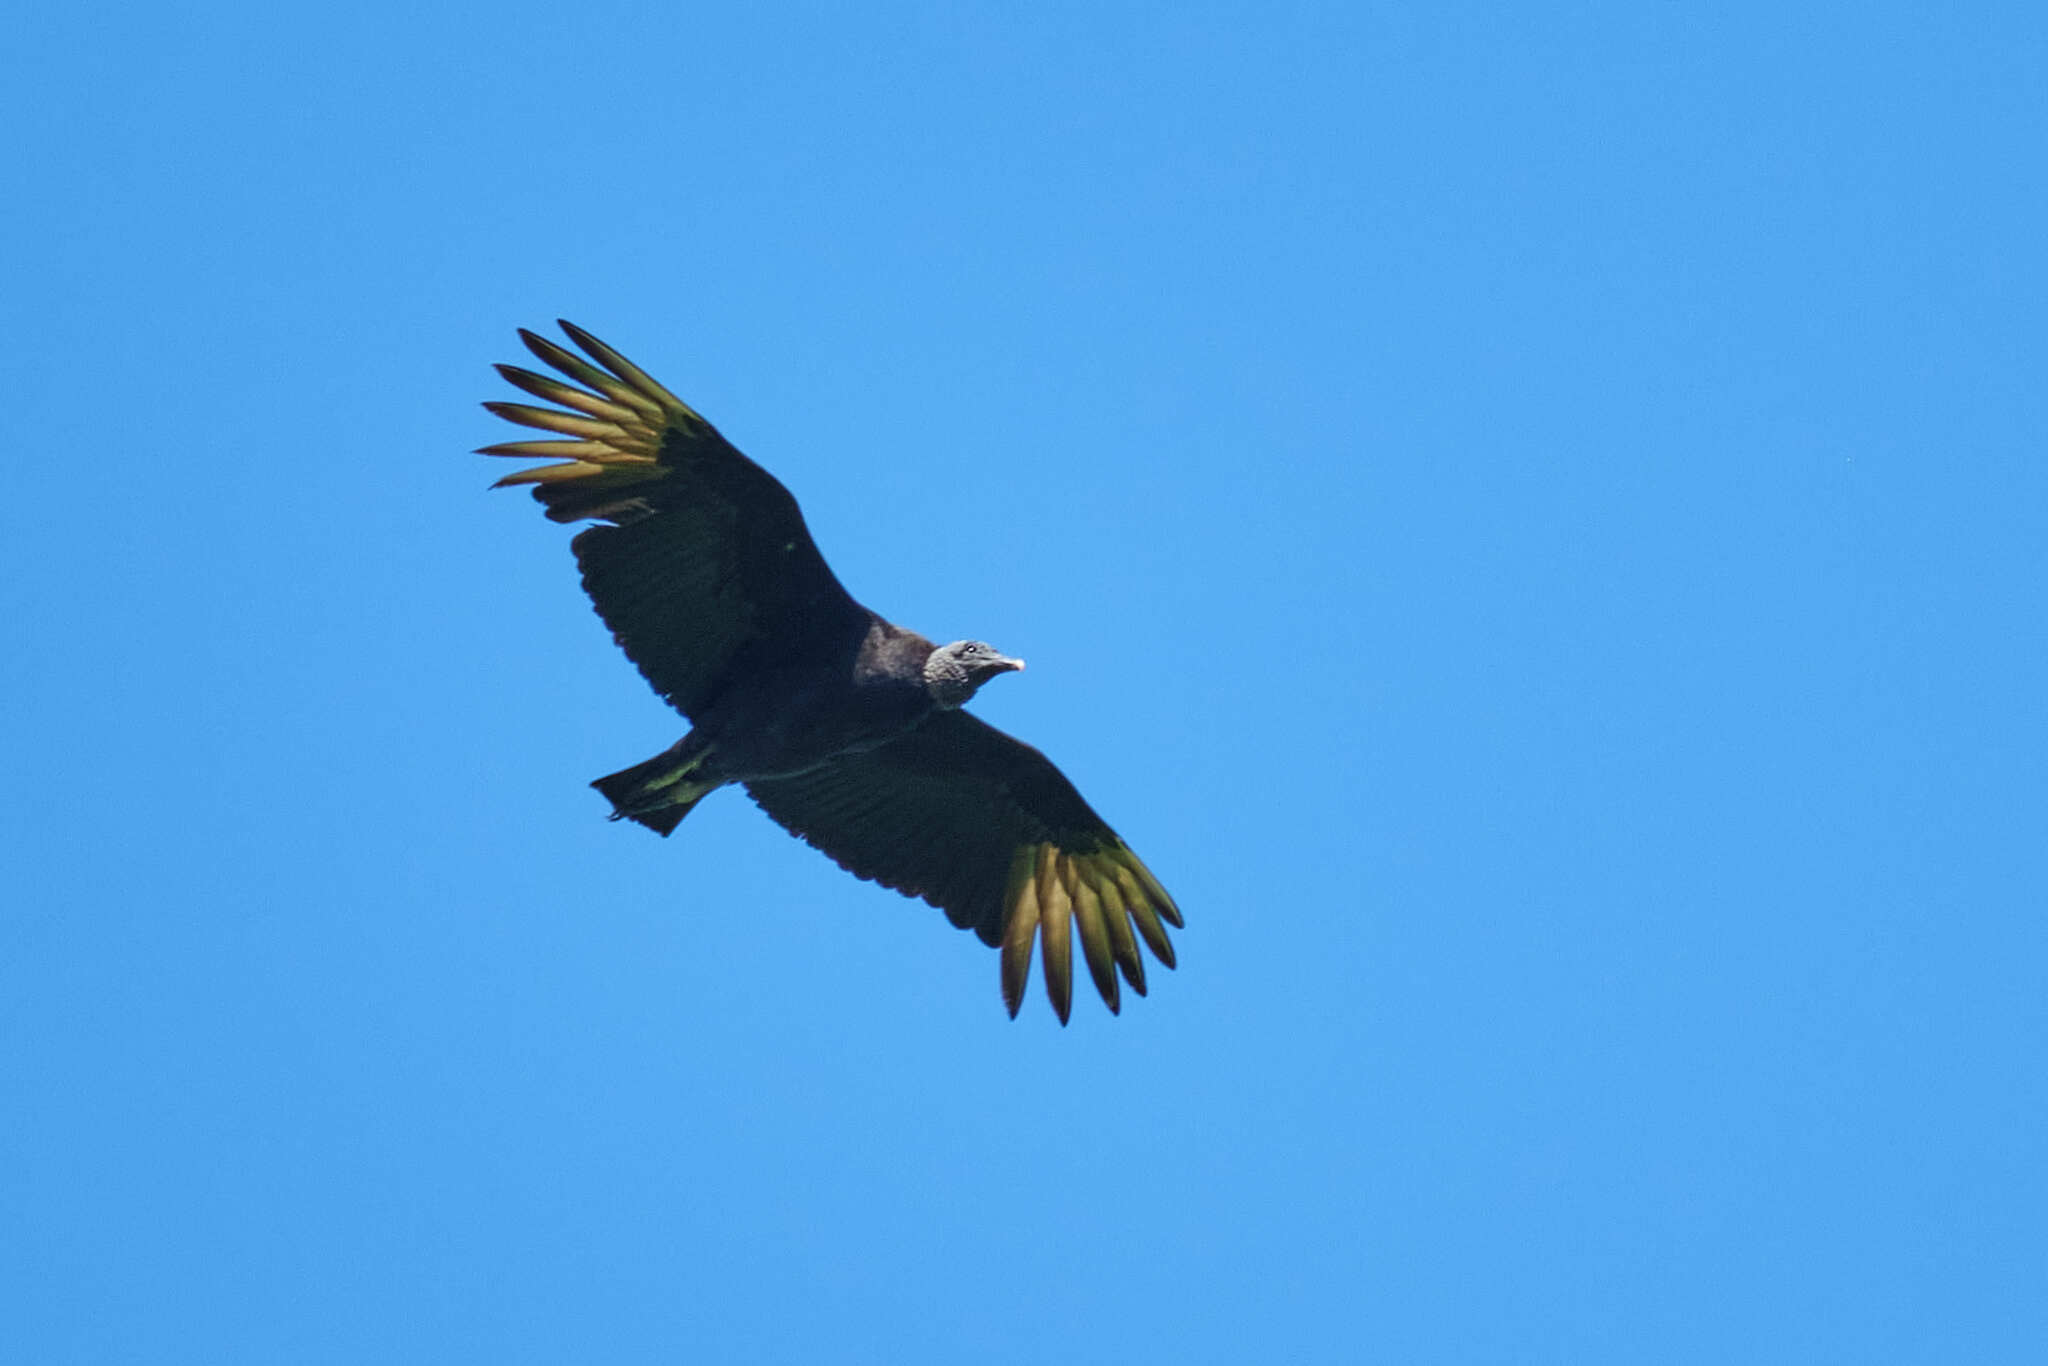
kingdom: Animalia
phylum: Chordata
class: Aves
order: Accipitriformes
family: Cathartidae
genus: Coragyps
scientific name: Coragyps atratus
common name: Black vulture
